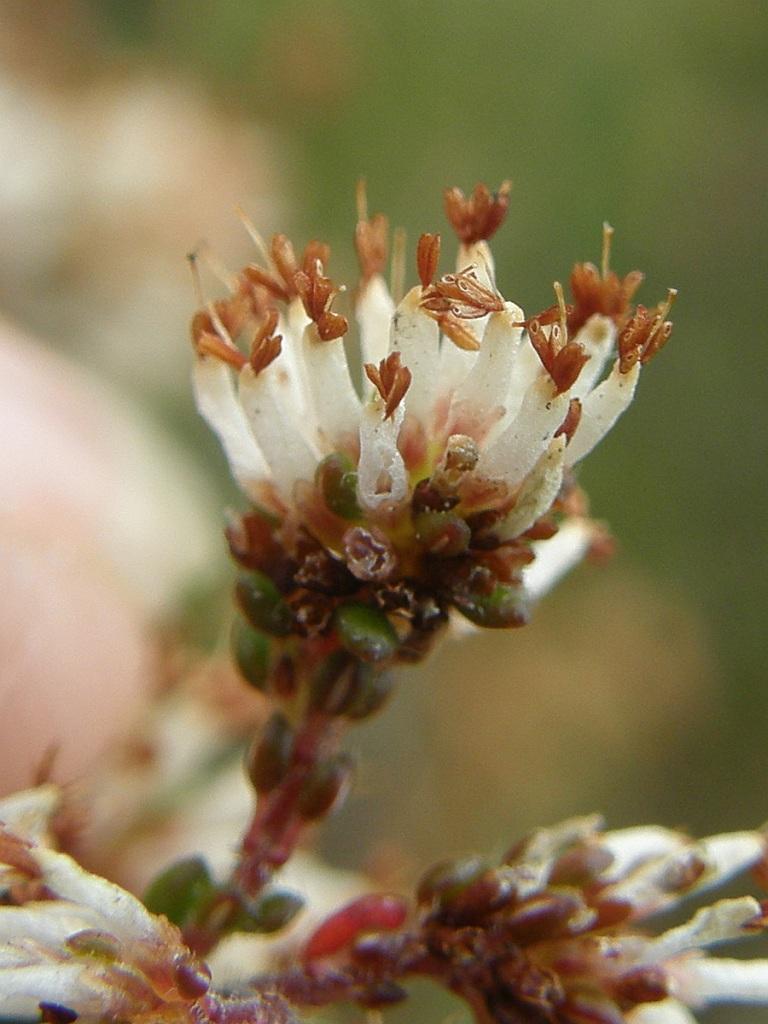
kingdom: Plantae
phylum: Tracheophyta
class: Magnoliopsida
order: Ericales
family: Ericaceae
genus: Erica
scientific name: Erica benthamiana
